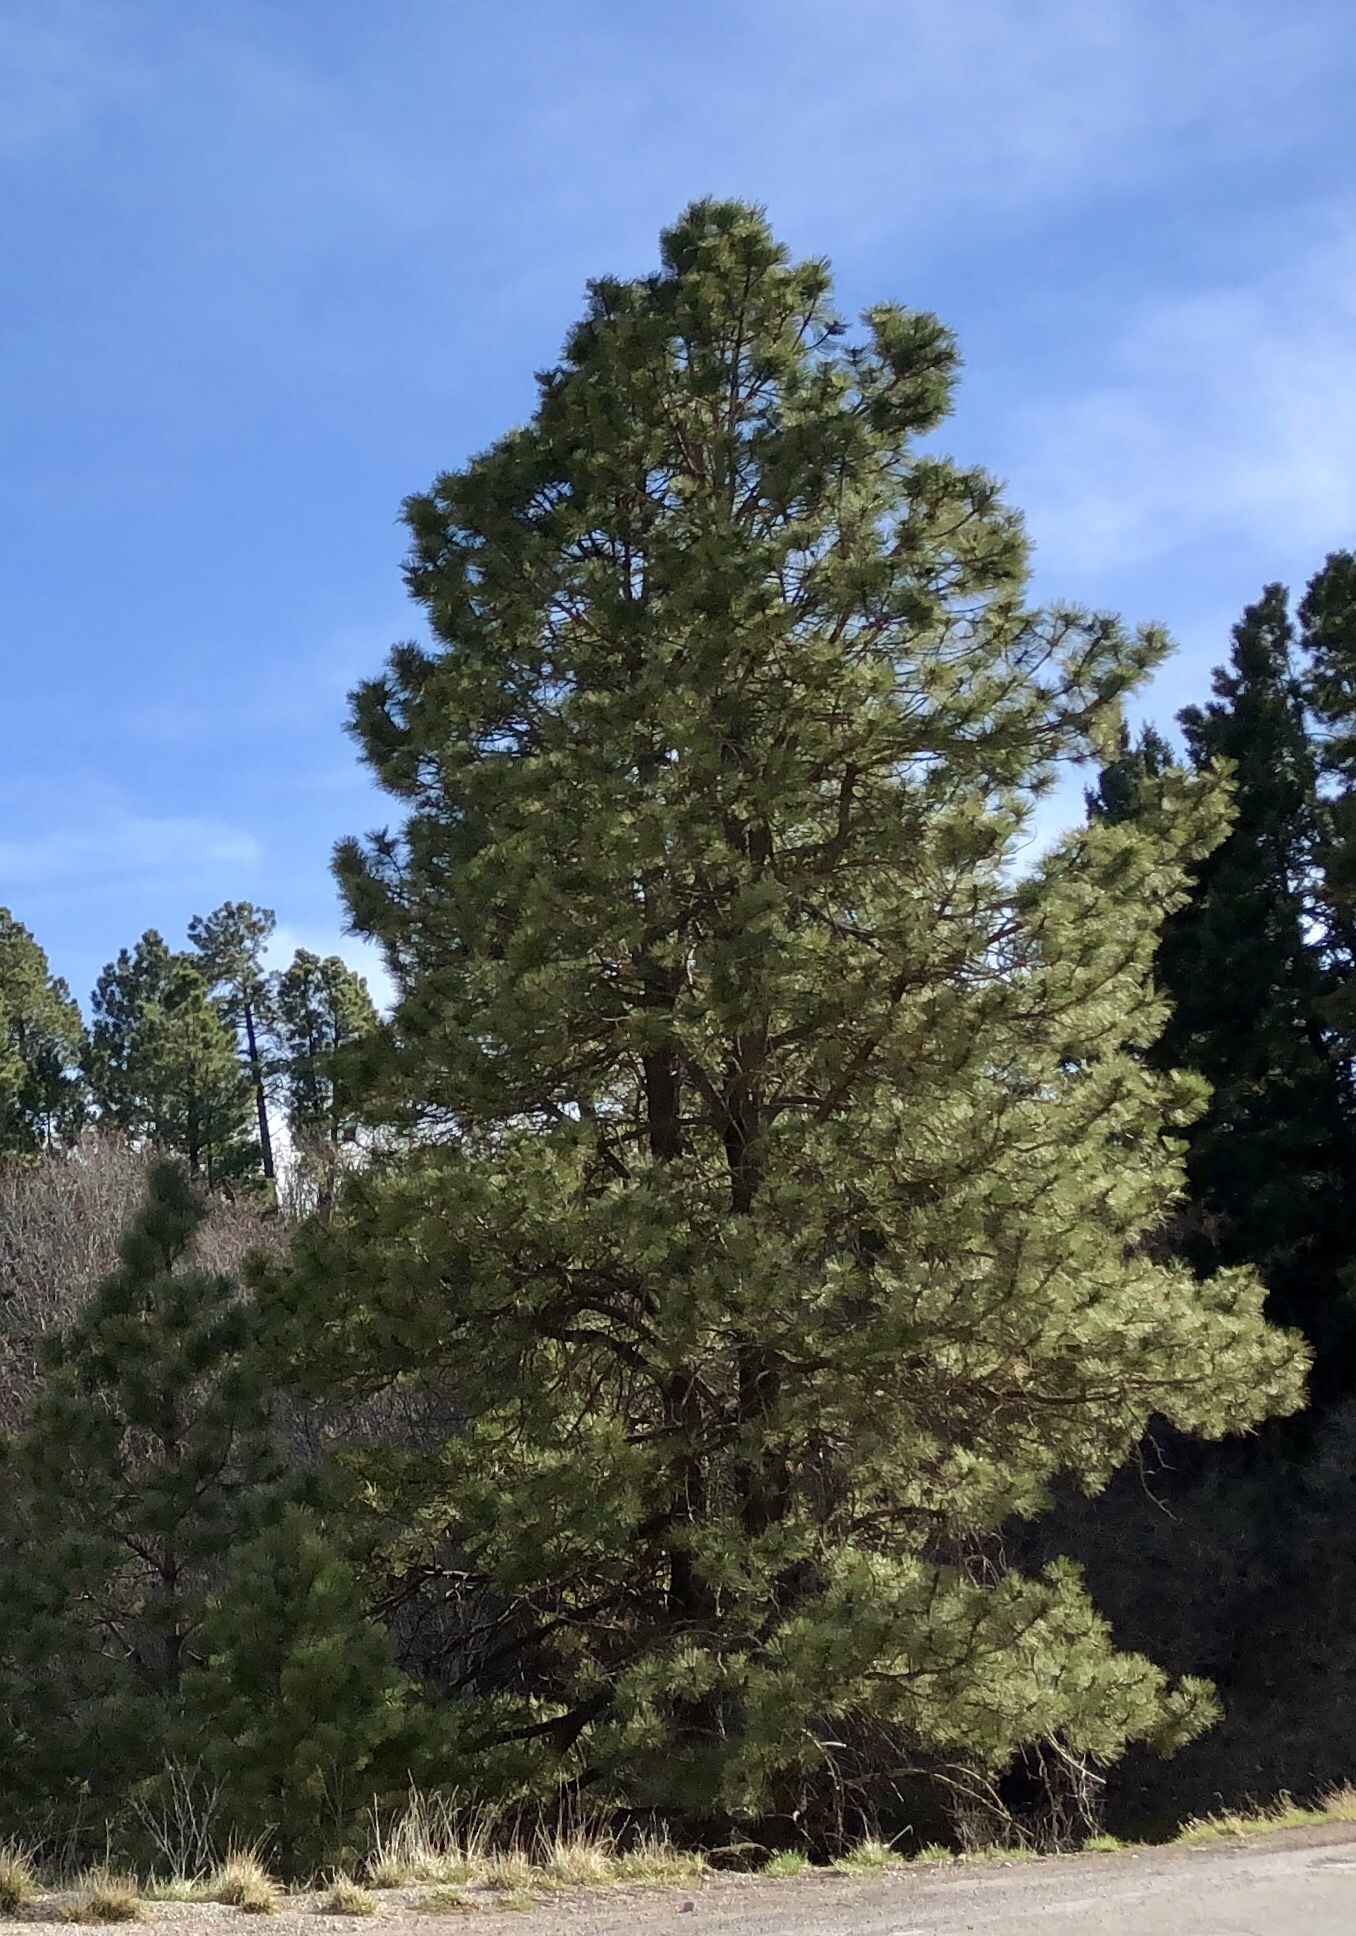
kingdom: Plantae
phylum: Tracheophyta
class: Pinopsida
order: Pinales
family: Pinaceae
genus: Pinus
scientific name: Pinus ponderosa
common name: Western yellow-pine
